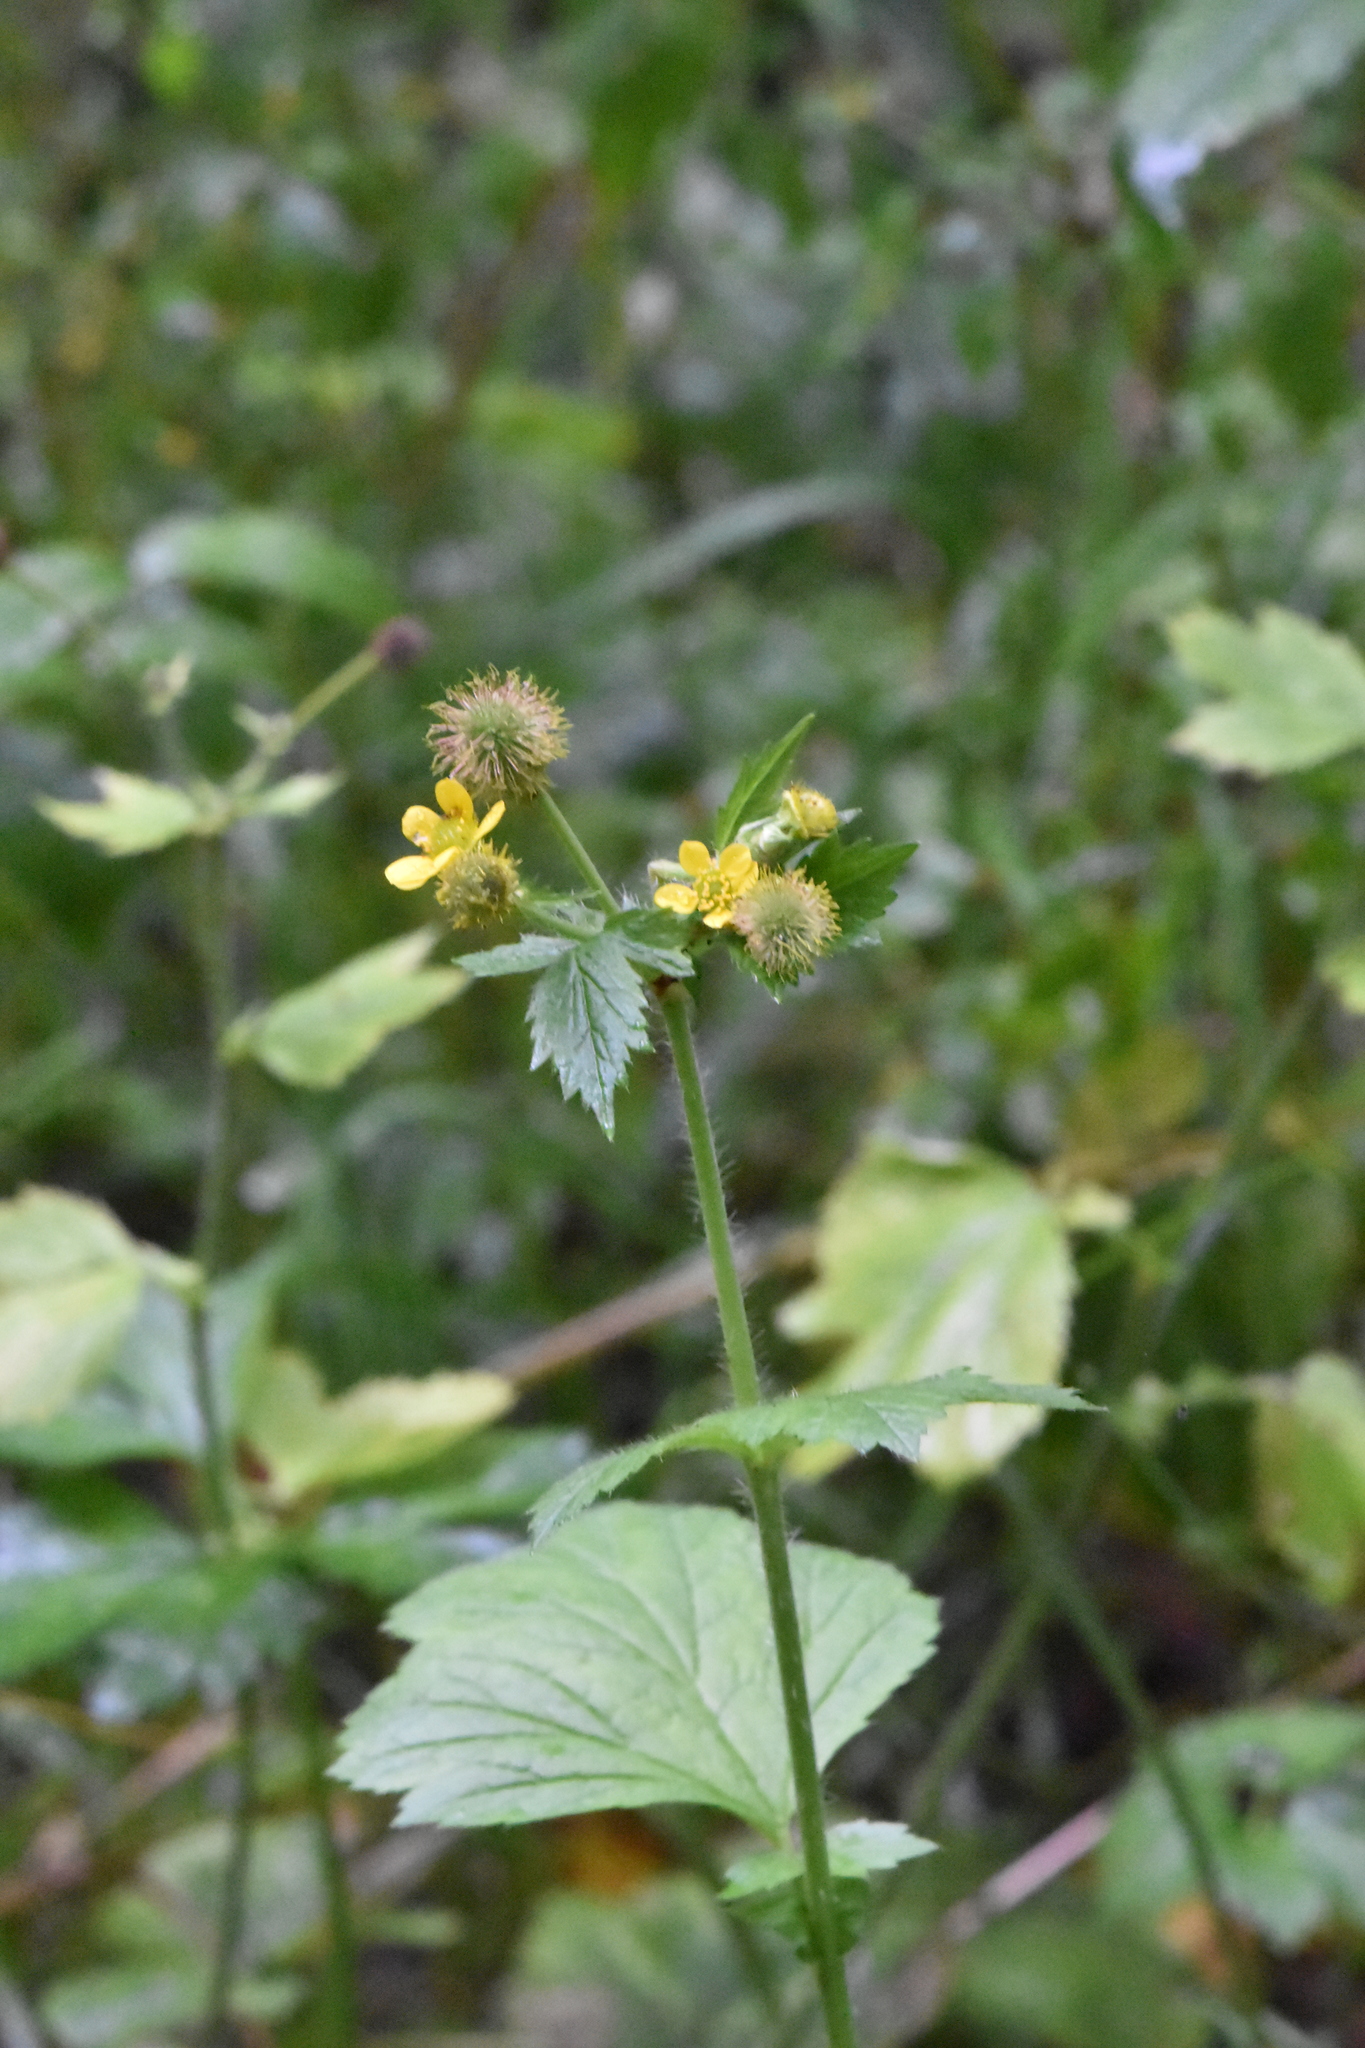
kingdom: Plantae
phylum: Tracheophyta
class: Magnoliopsida
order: Rosales
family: Rosaceae
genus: Geum
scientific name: Geum macrophyllum
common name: Large-leaved avens
